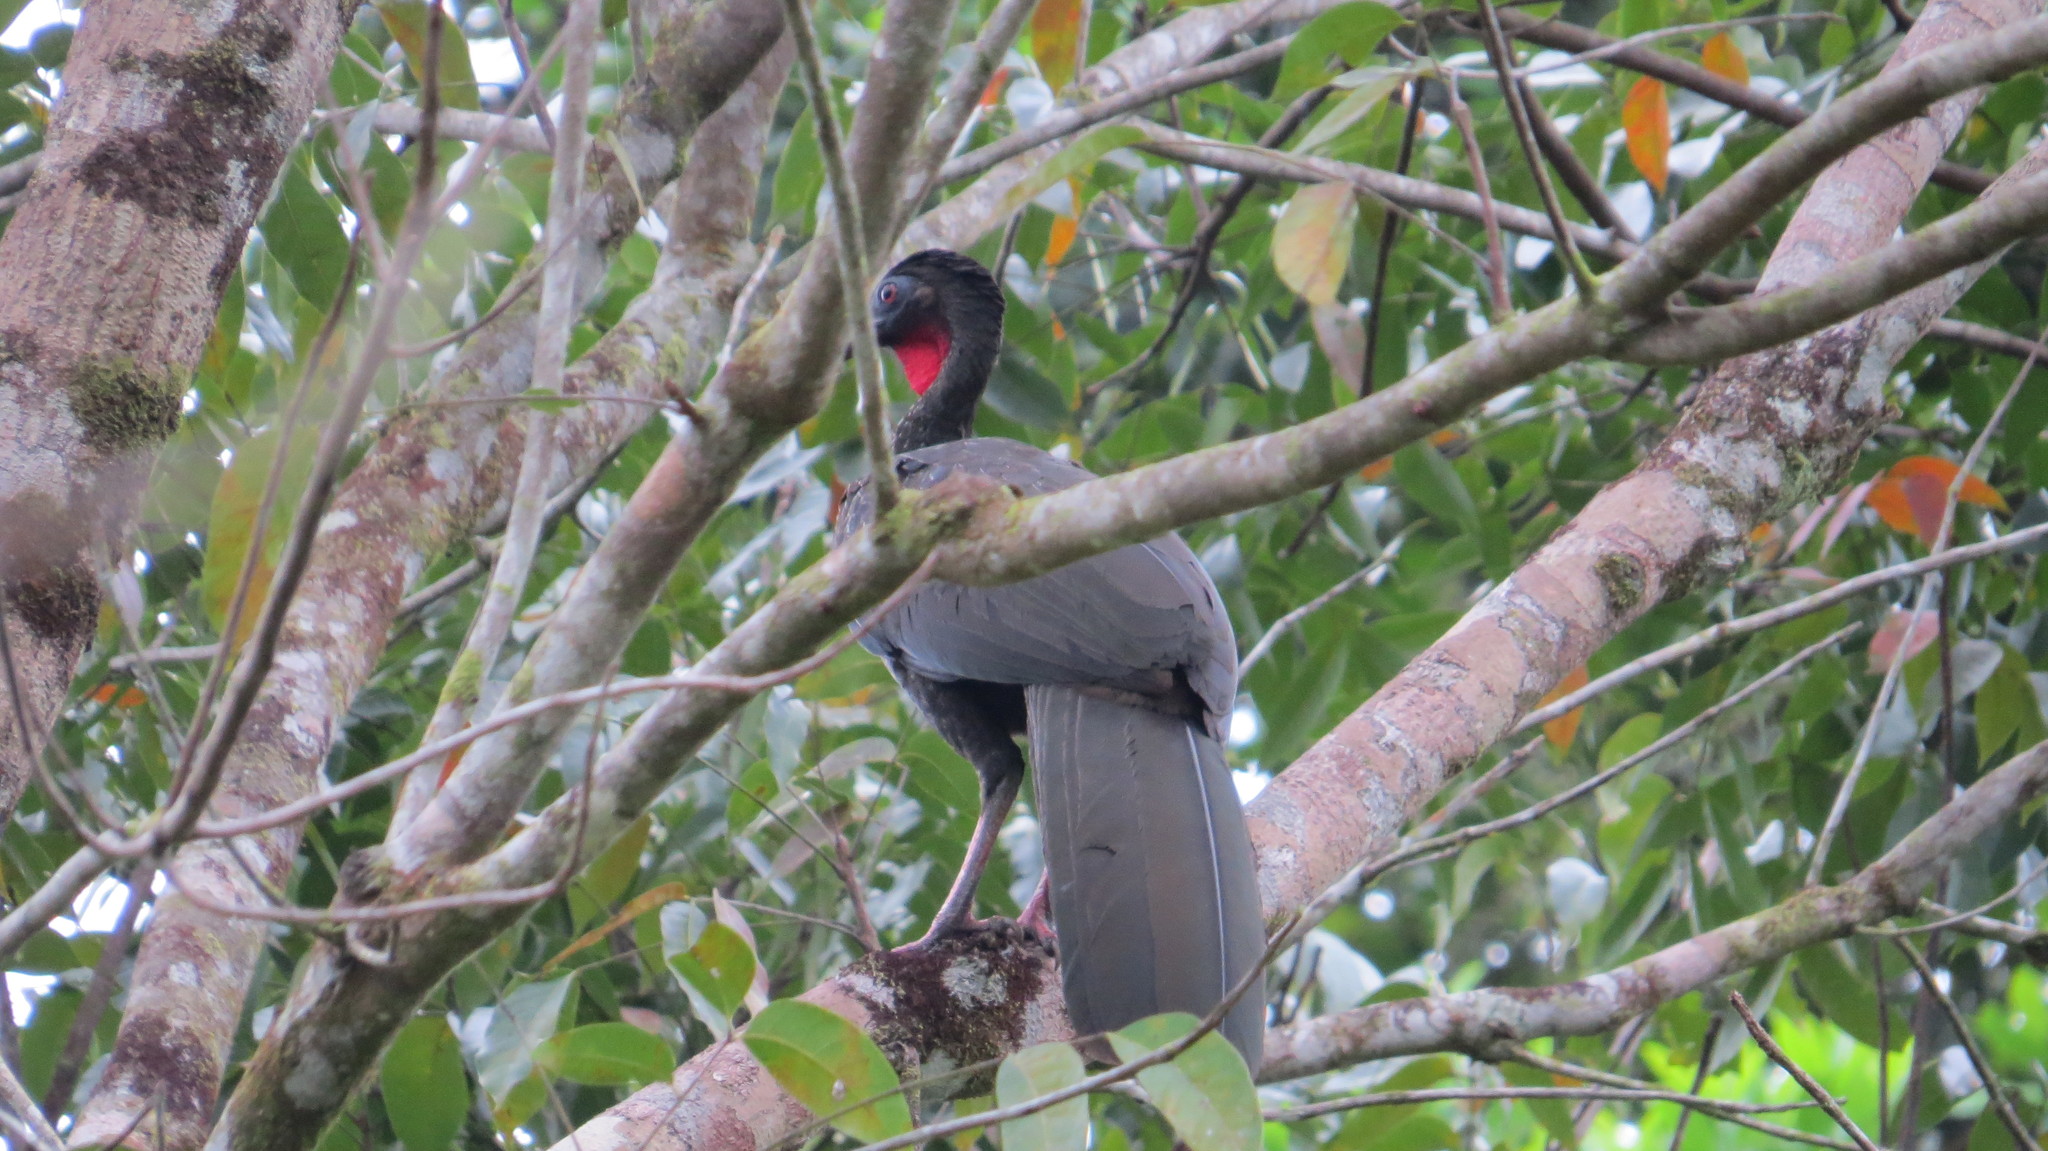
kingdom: Animalia
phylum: Chordata
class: Aves
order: Galliformes
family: Cracidae
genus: Penelope
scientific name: Penelope purpurascens
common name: Crested guan
